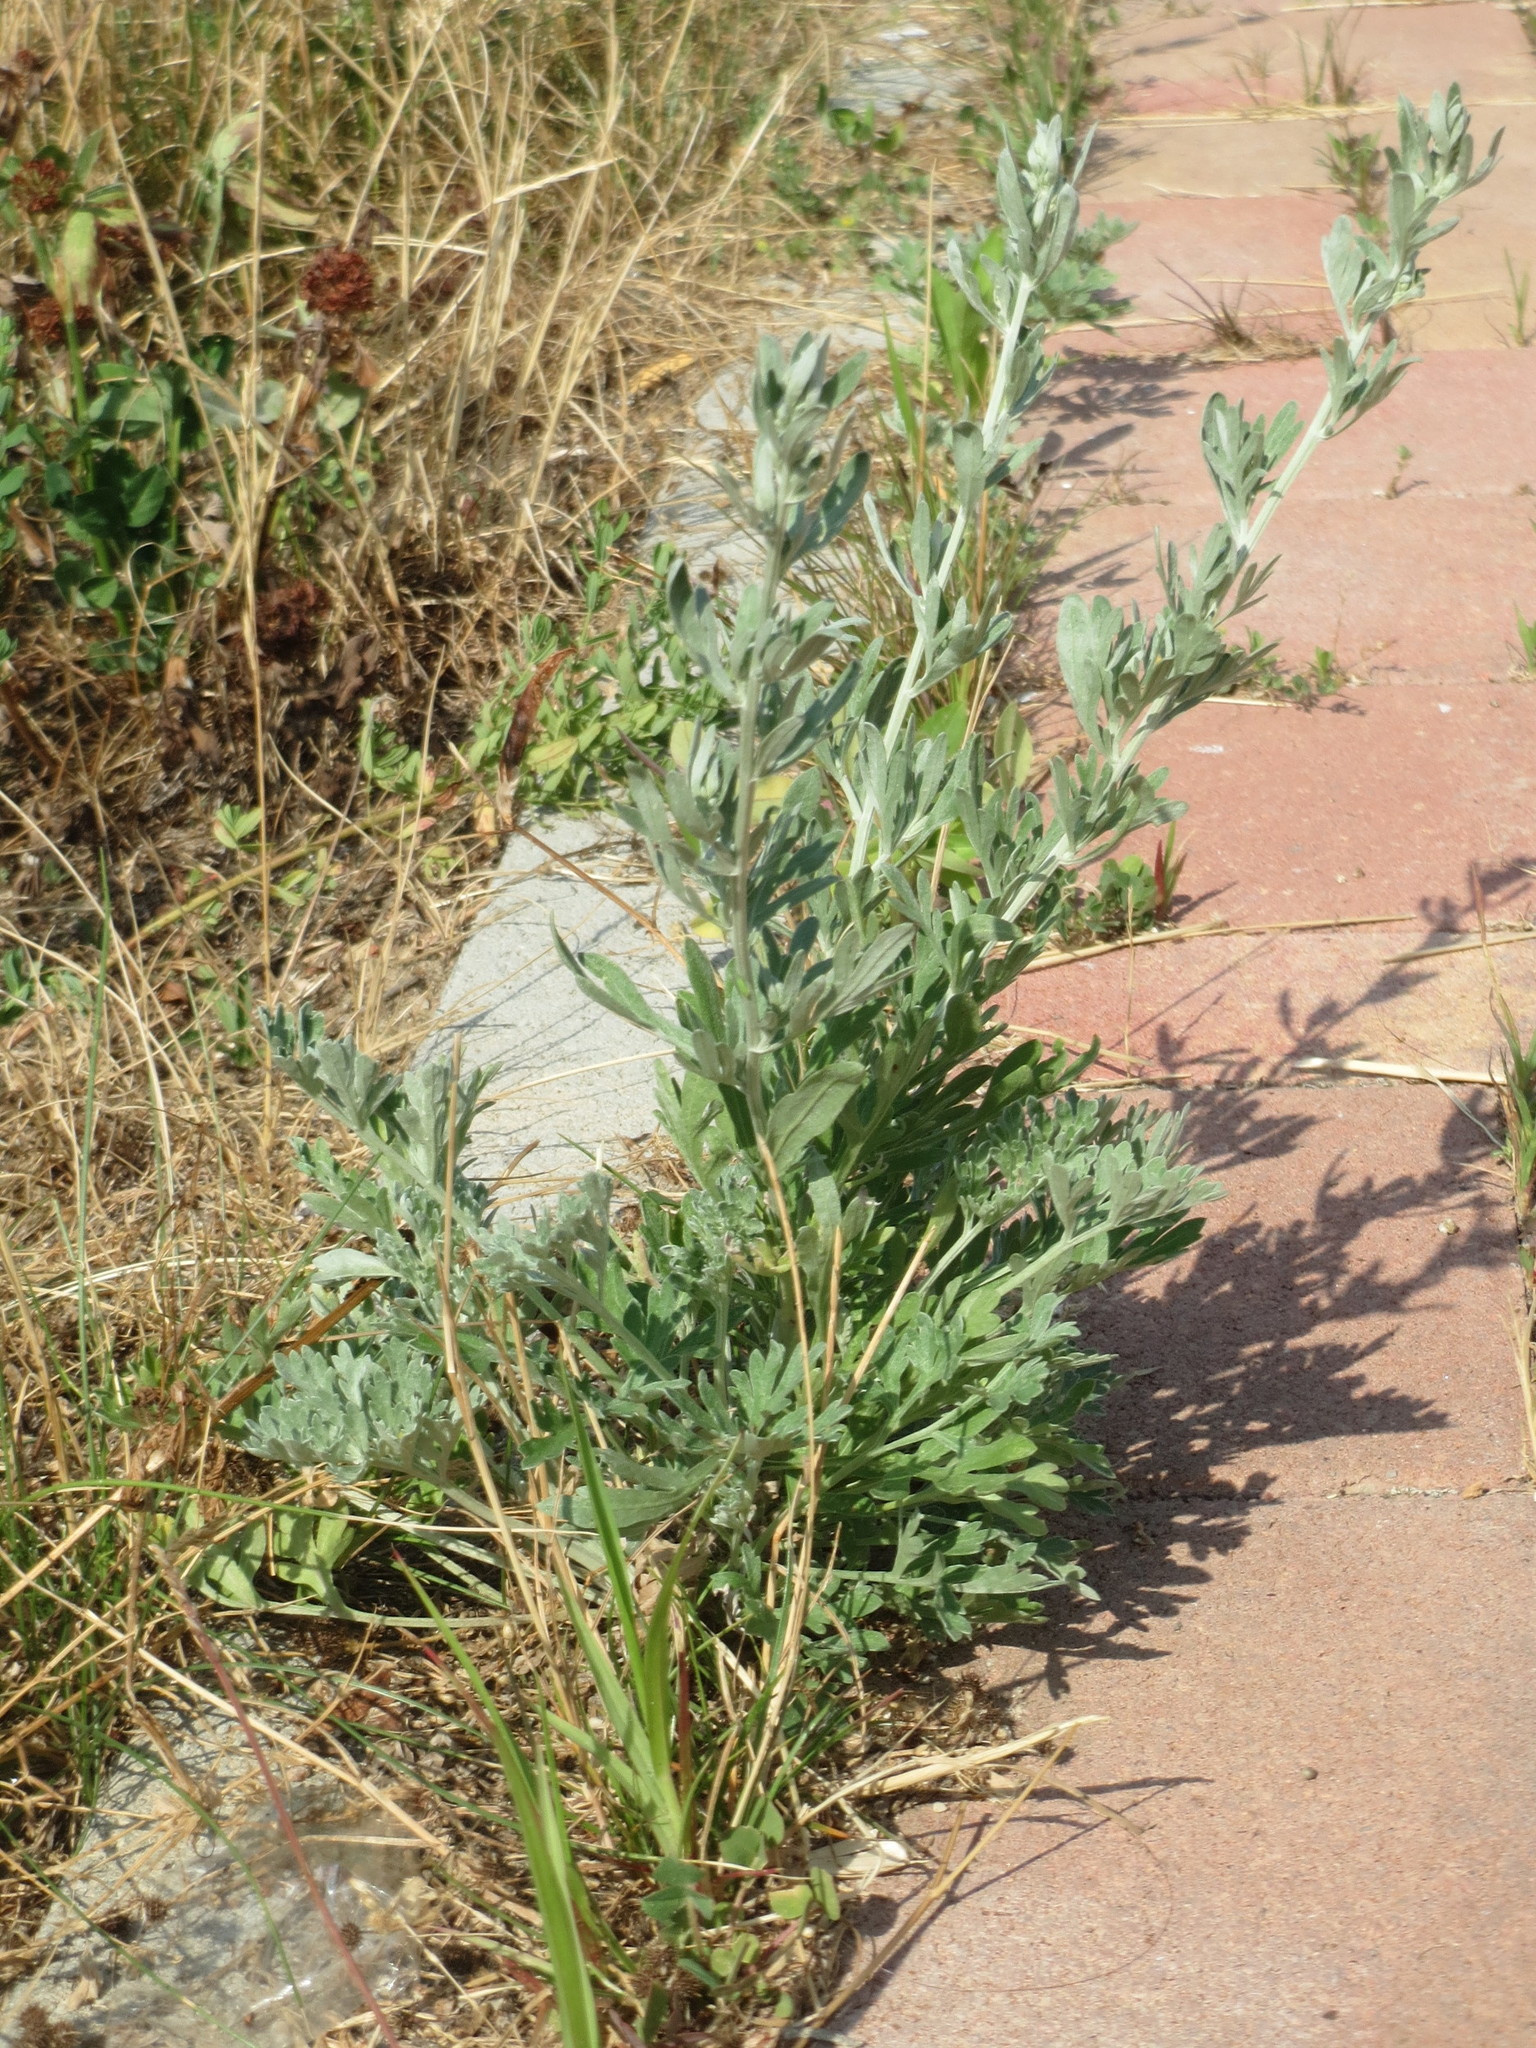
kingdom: Plantae
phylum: Tracheophyta
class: Magnoliopsida
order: Asterales
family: Asteraceae
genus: Artemisia
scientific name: Artemisia absinthium
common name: Wormwood
